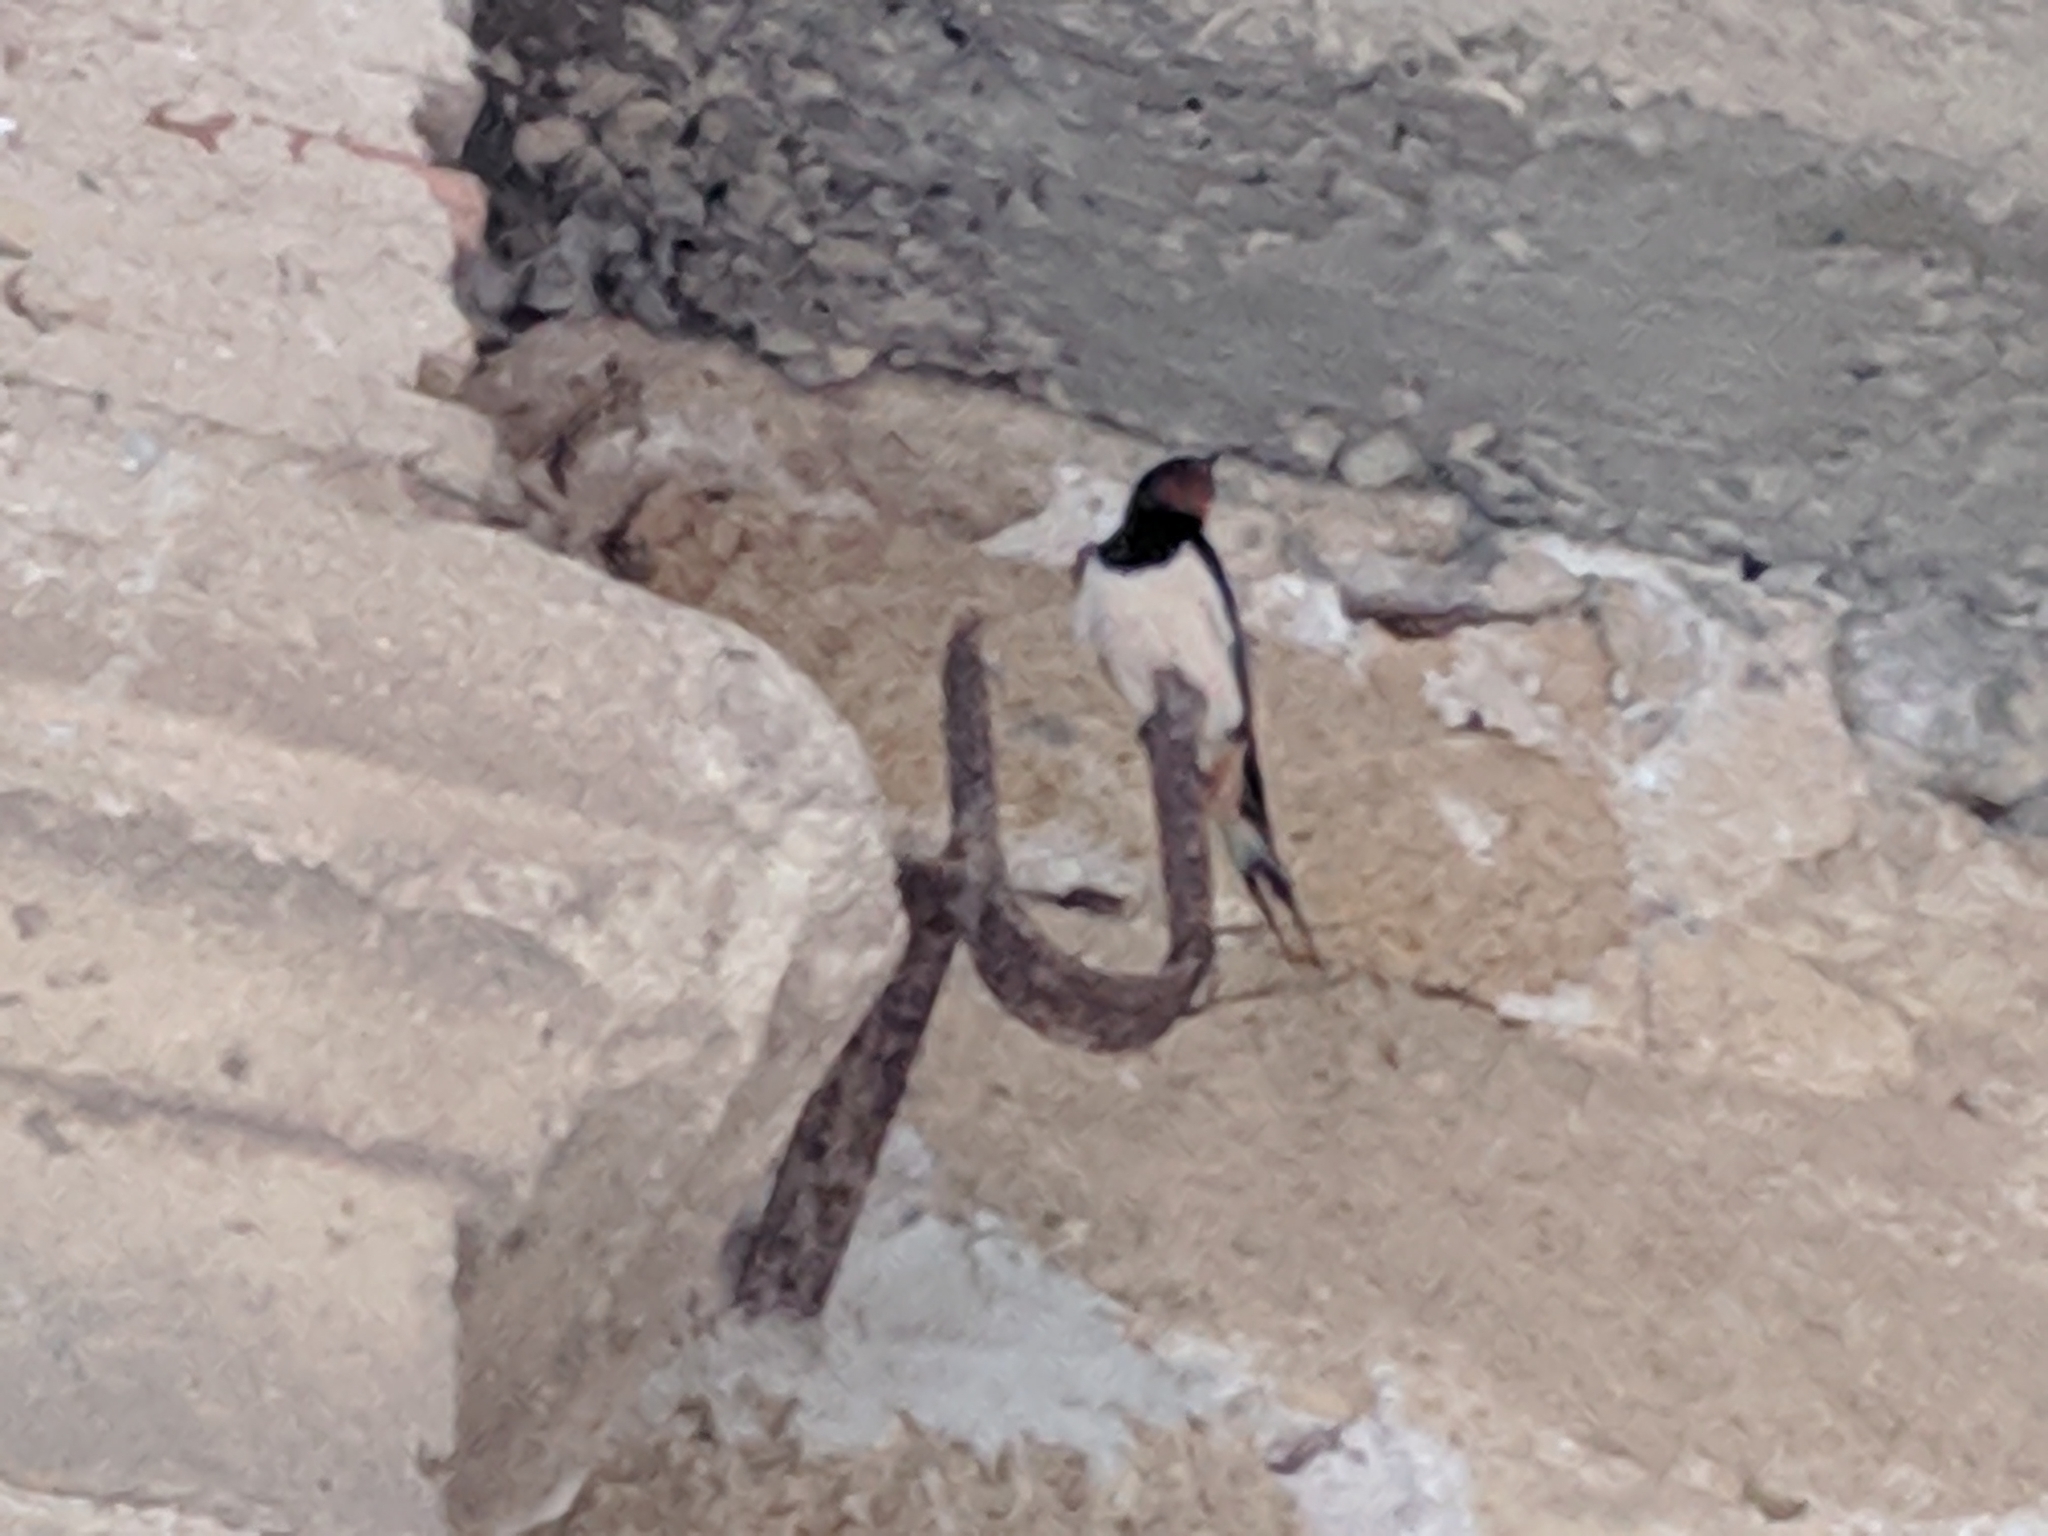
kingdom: Animalia
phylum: Chordata
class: Aves
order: Passeriformes
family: Hirundinidae
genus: Hirundo
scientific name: Hirundo rustica
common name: Barn swallow
